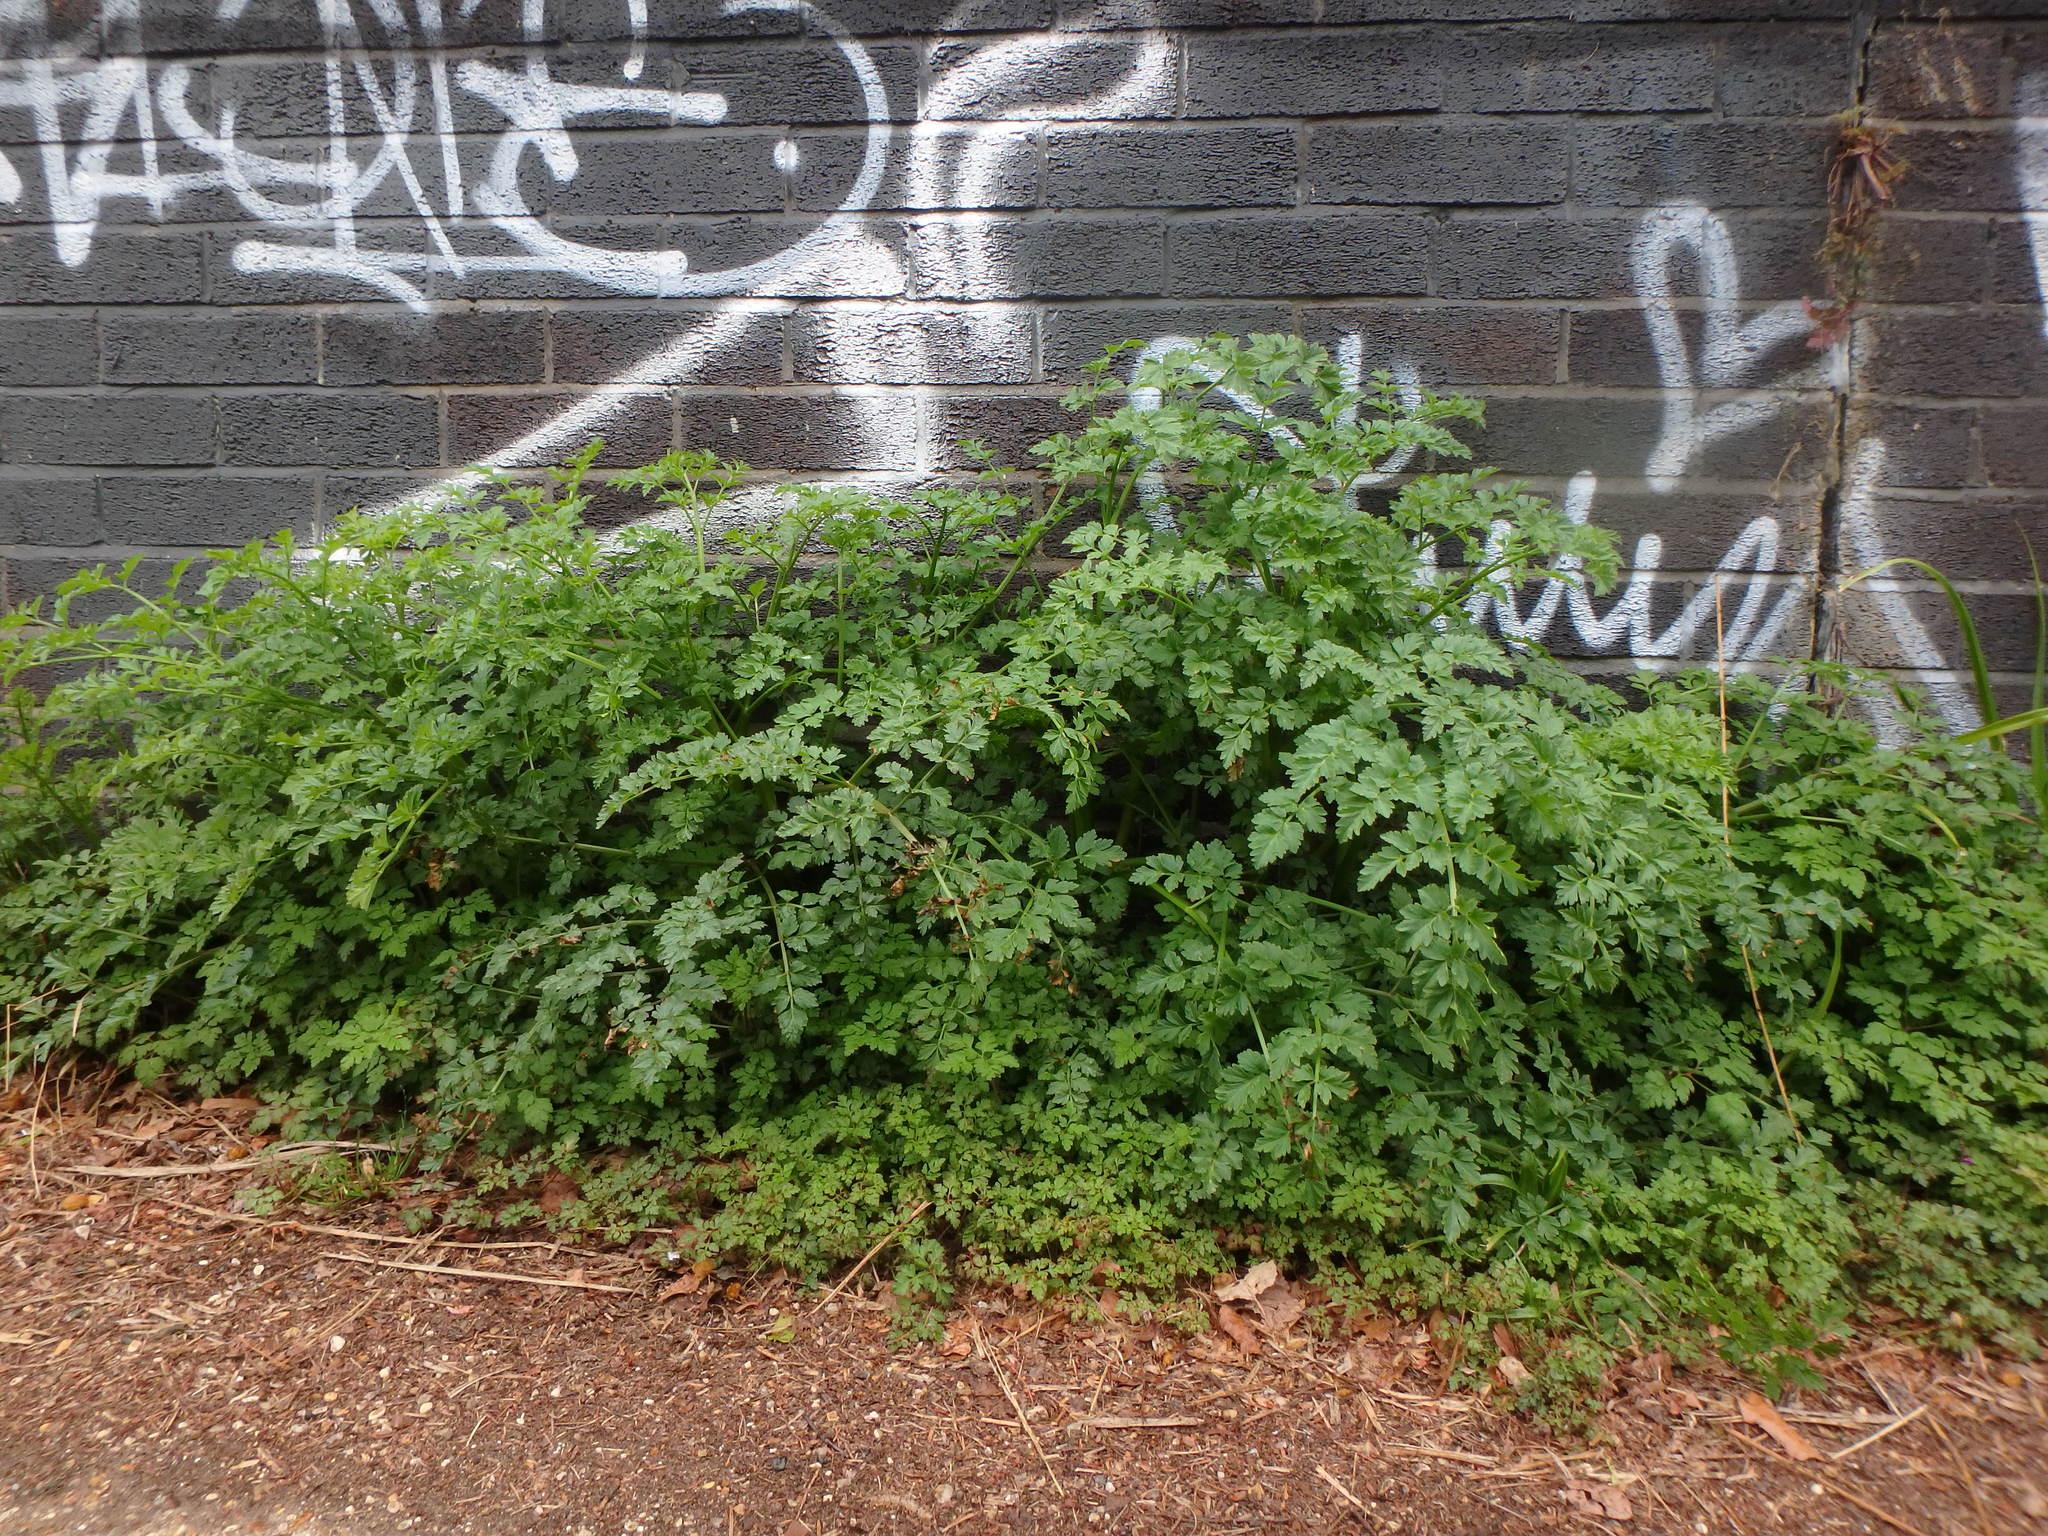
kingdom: Plantae
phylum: Tracheophyta
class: Magnoliopsida
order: Apiales
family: Apiaceae
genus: Oenanthe
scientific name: Oenanthe crocata
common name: Hemlock water-dropwort
